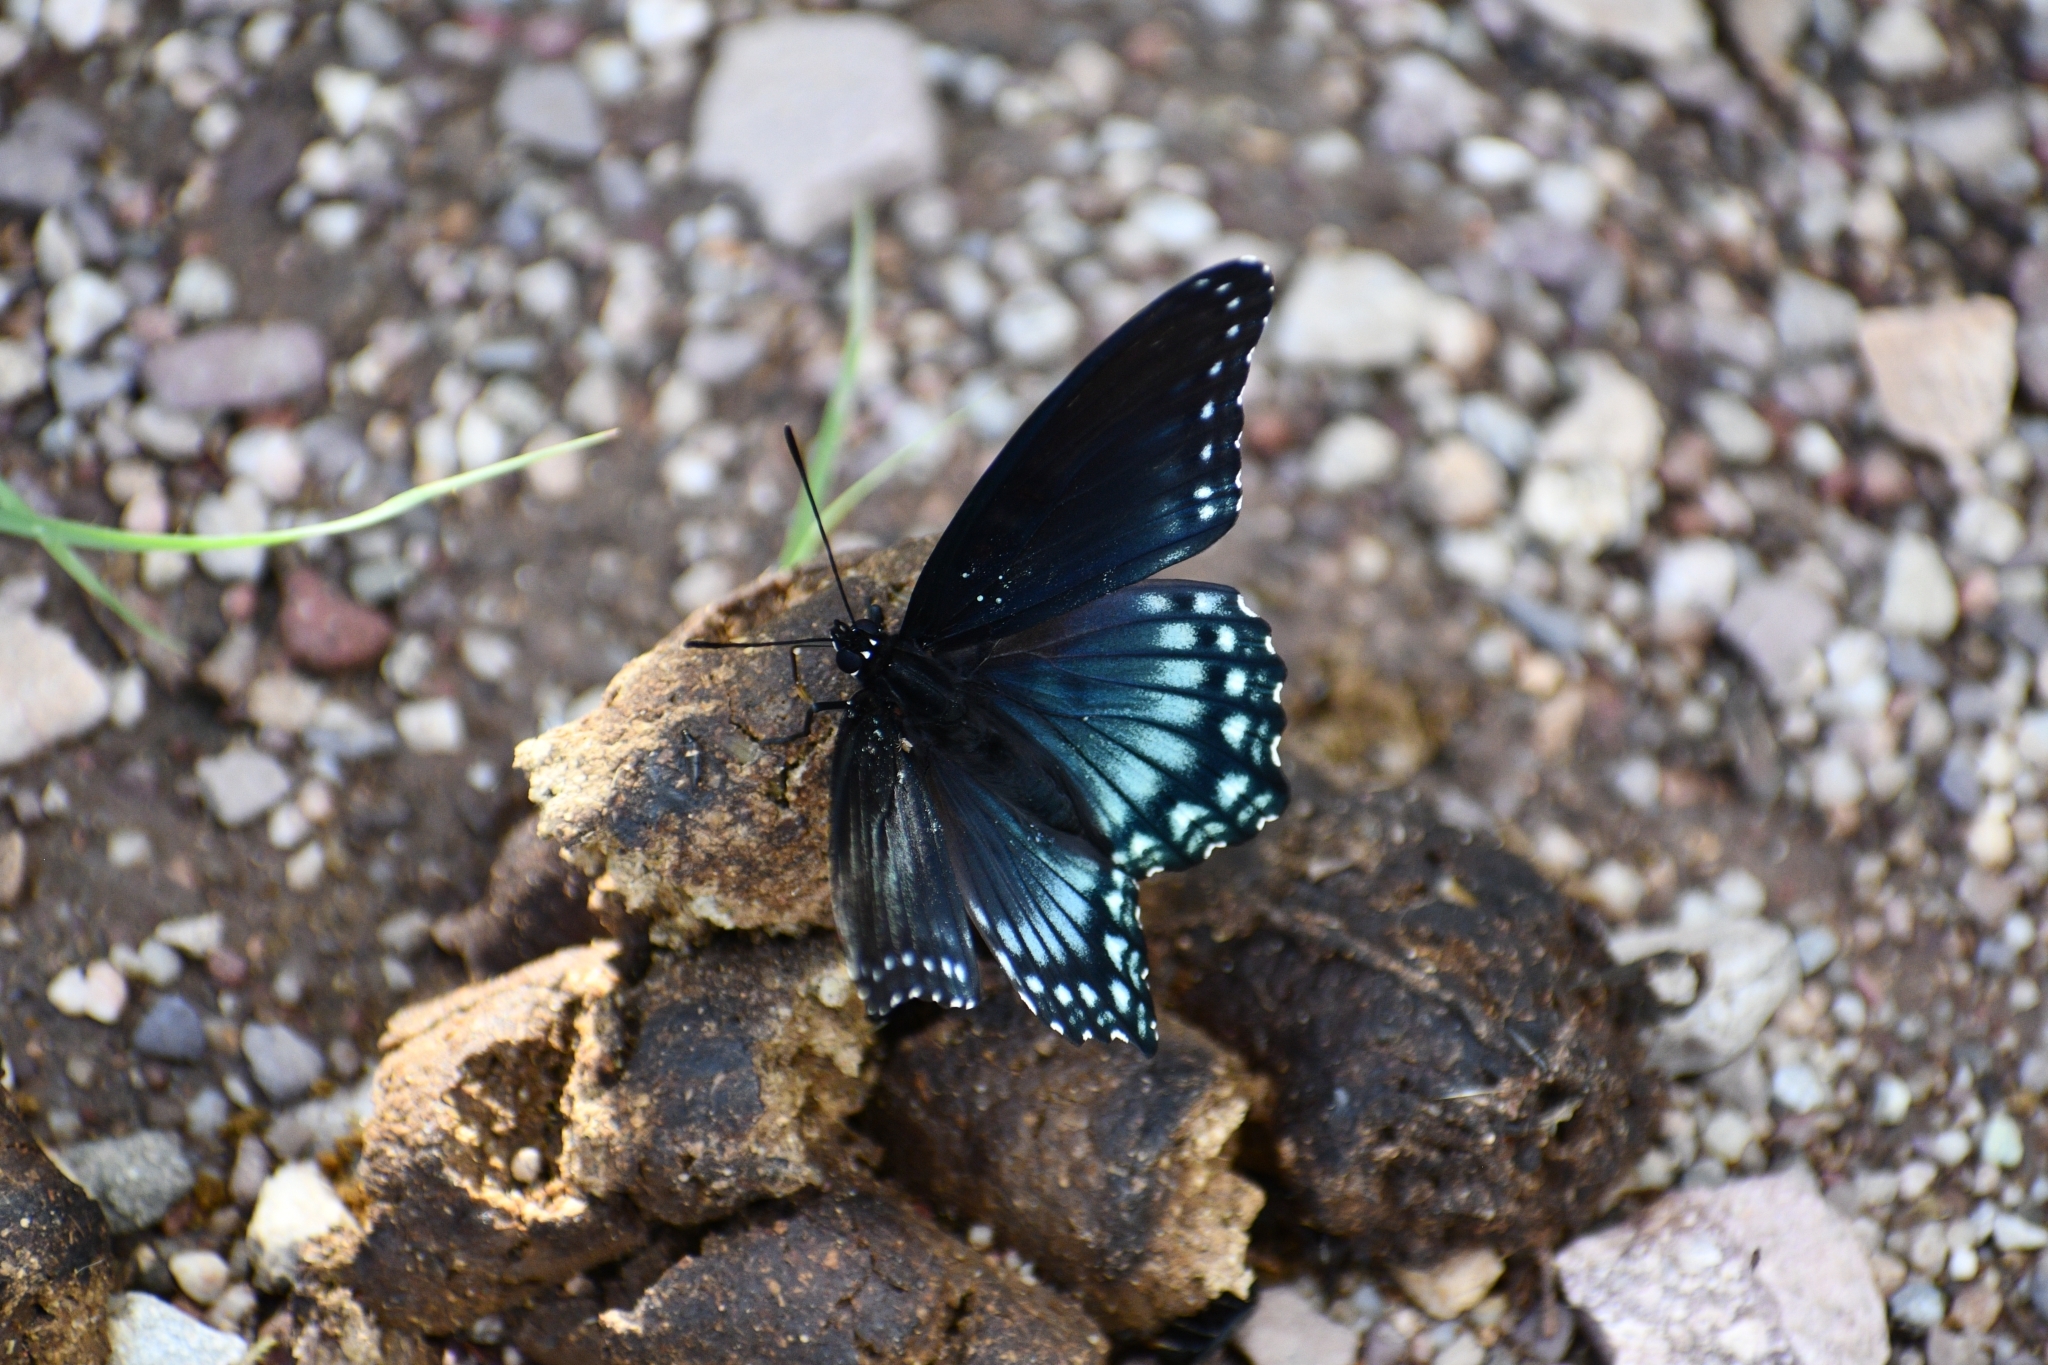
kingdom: Animalia
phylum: Arthropoda
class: Insecta
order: Lepidoptera
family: Nymphalidae
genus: Limenitis
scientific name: Limenitis arthemis
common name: Red-spotted admiral
